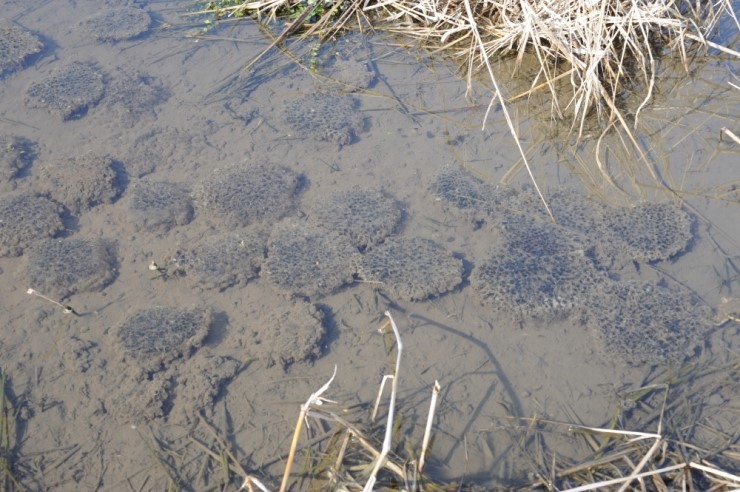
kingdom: Animalia
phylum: Chordata
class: Amphibia
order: Anura
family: Ranidae
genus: Rana
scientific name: Rana uenoi
